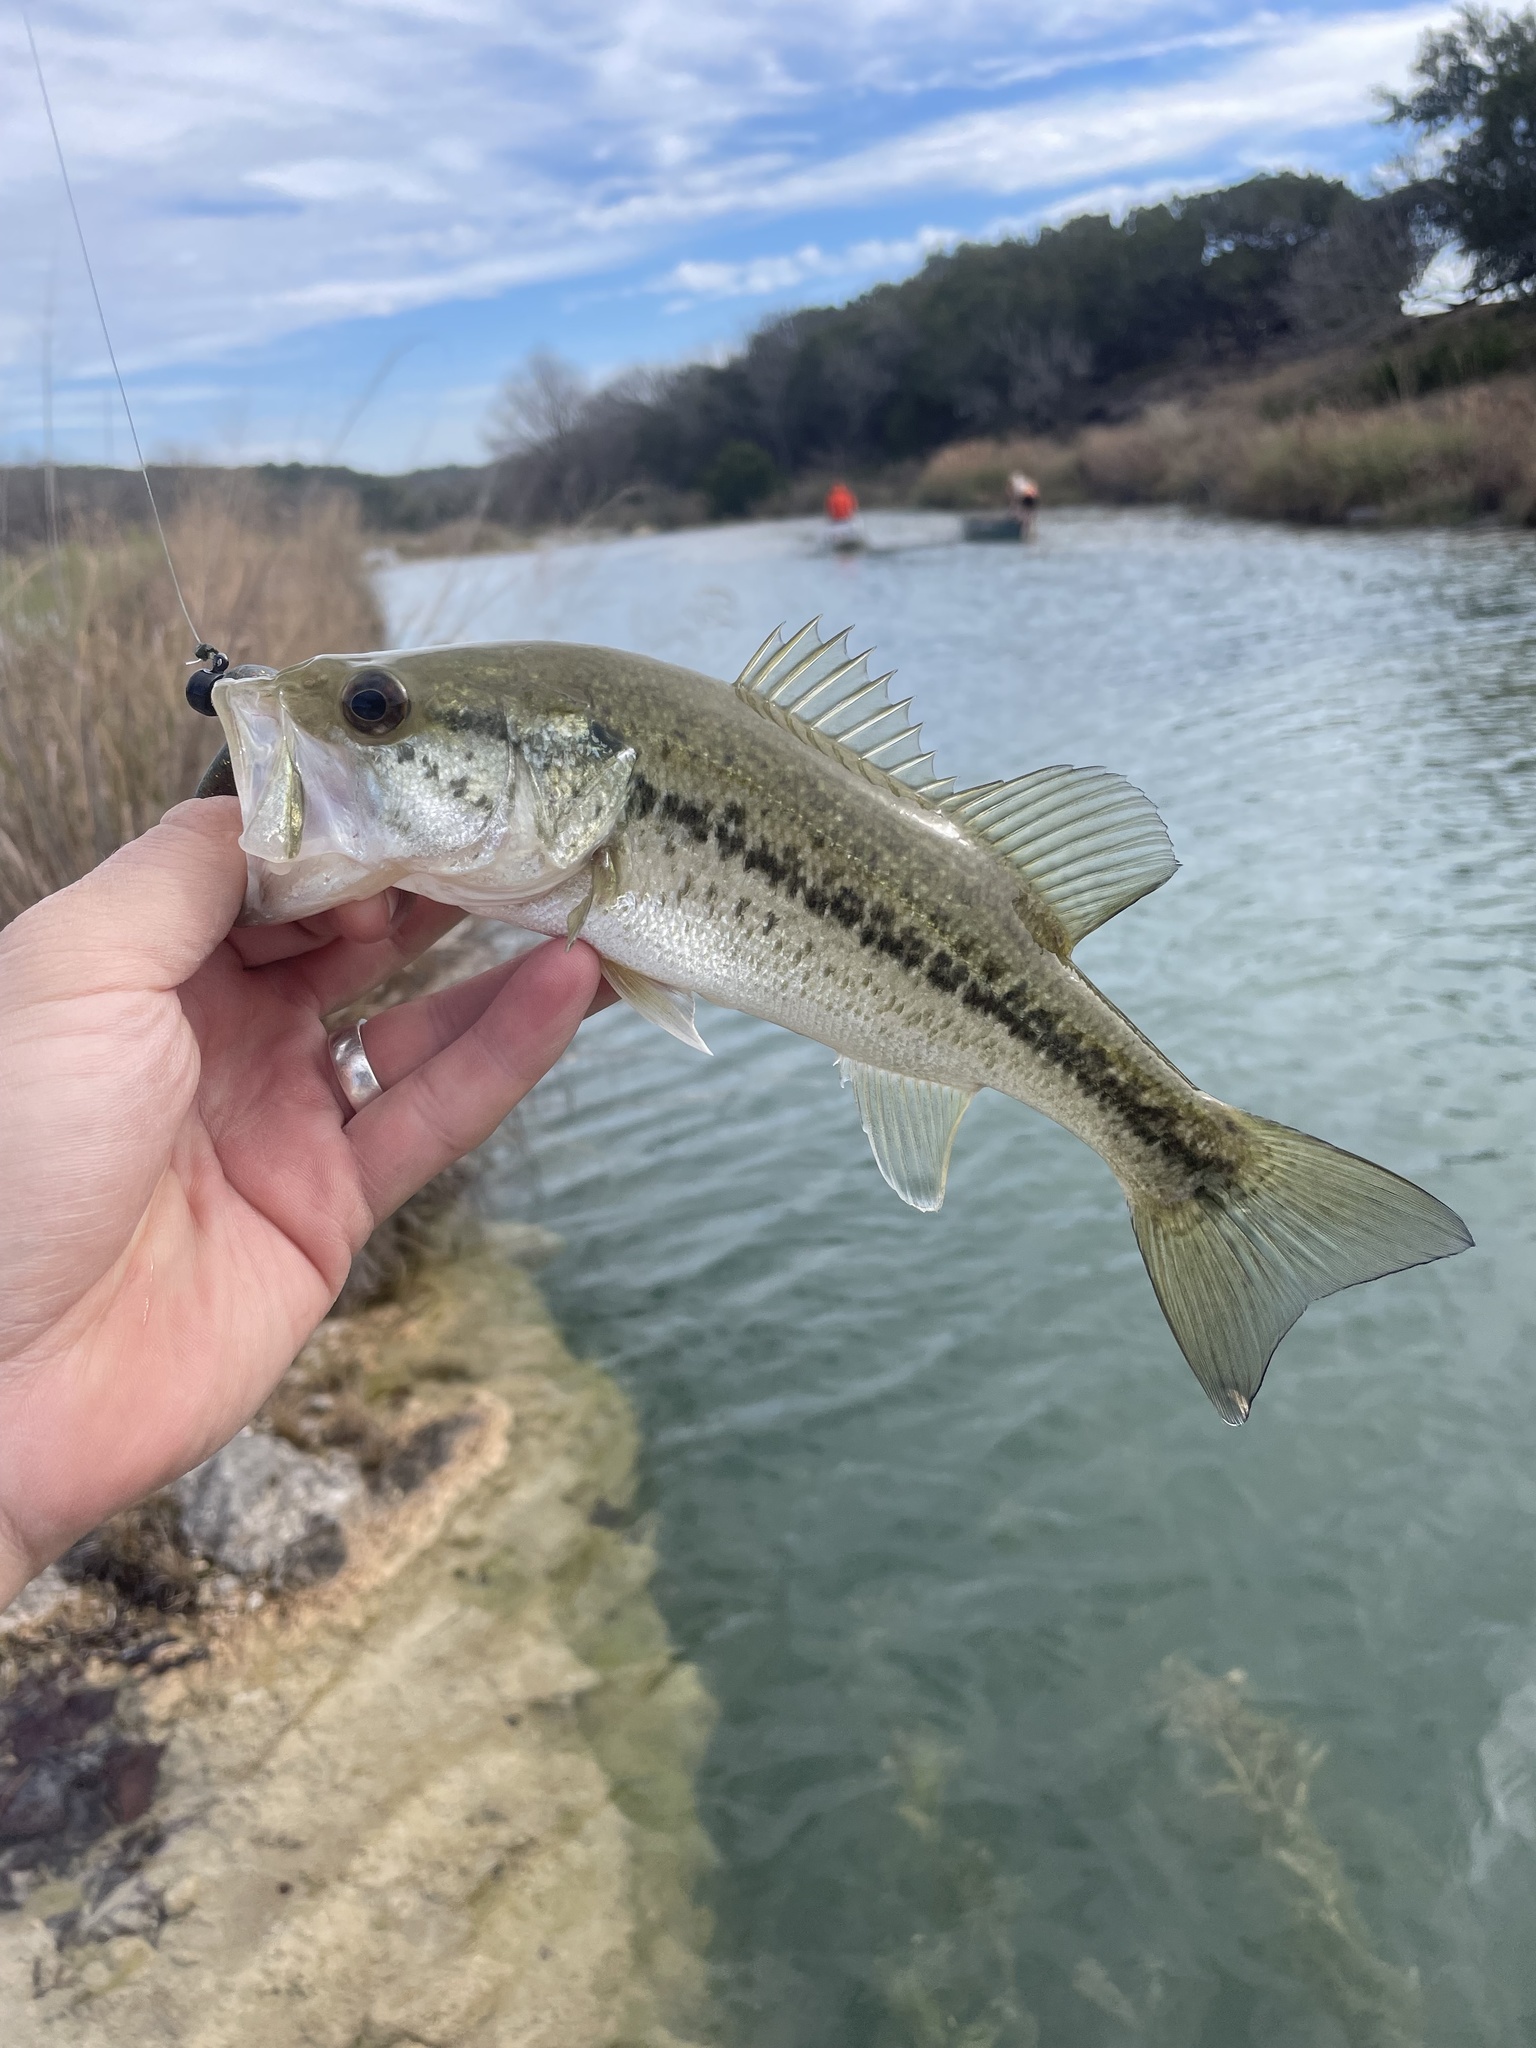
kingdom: Animalia
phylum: Chordata
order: Perciformes
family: Centrarchidae
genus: Micropterus
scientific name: Micropterus
